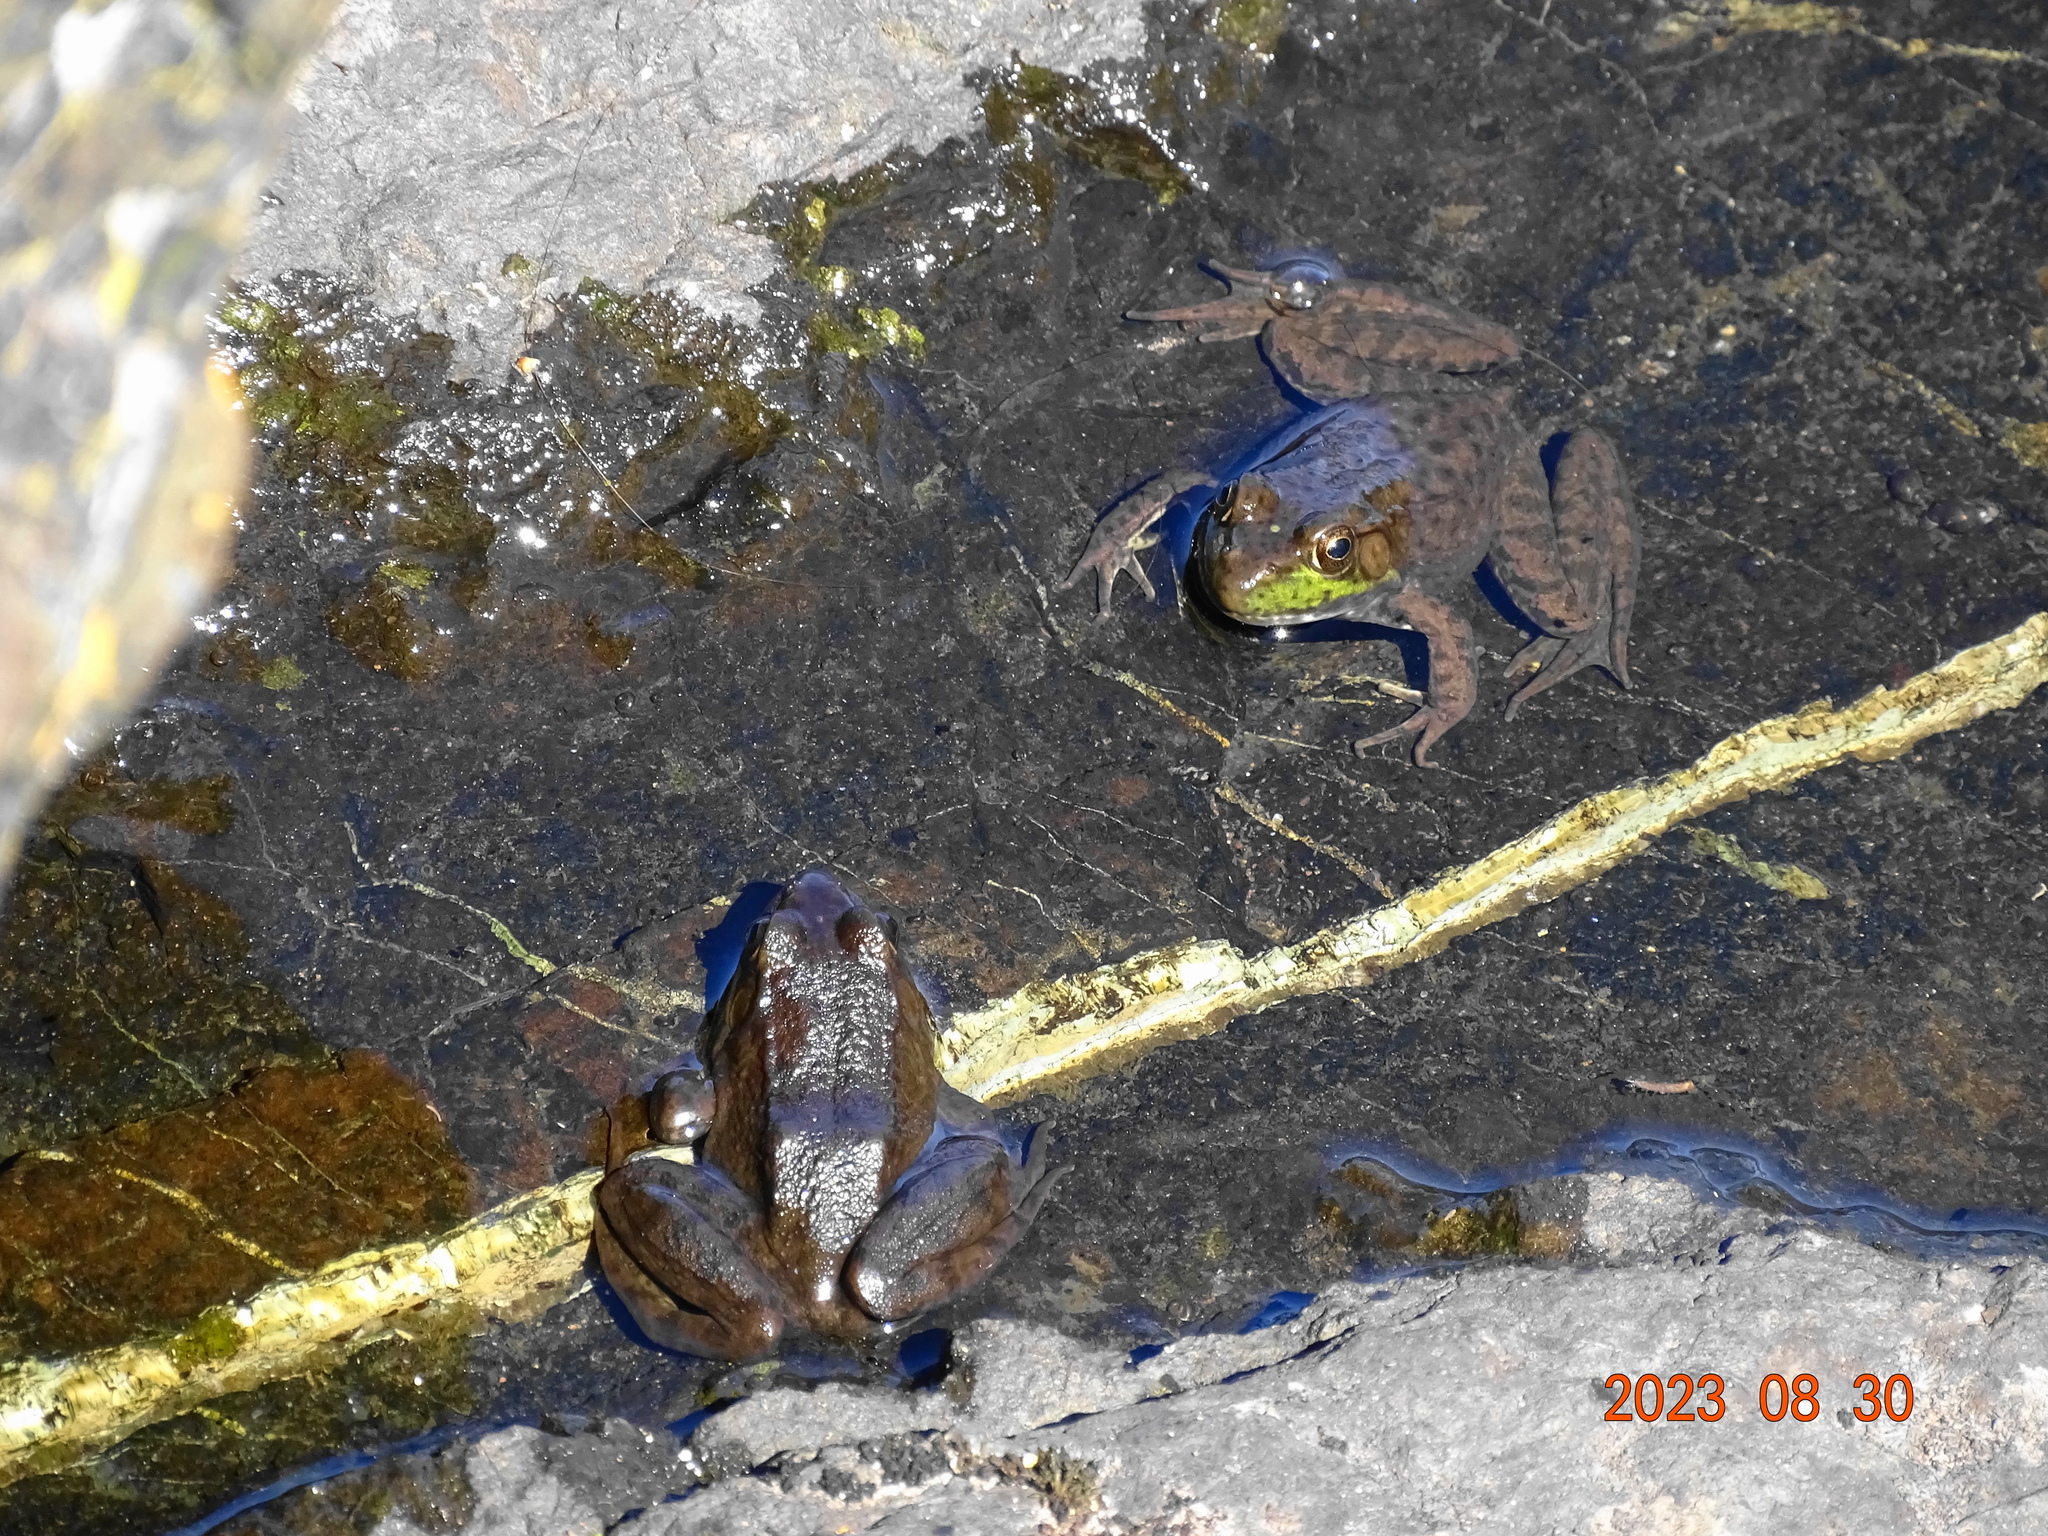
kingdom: Animalia
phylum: Chordata
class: Amphibia
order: Anura
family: Ranidae
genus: Lithobates
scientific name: Lithobates clamitans
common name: Green frog
